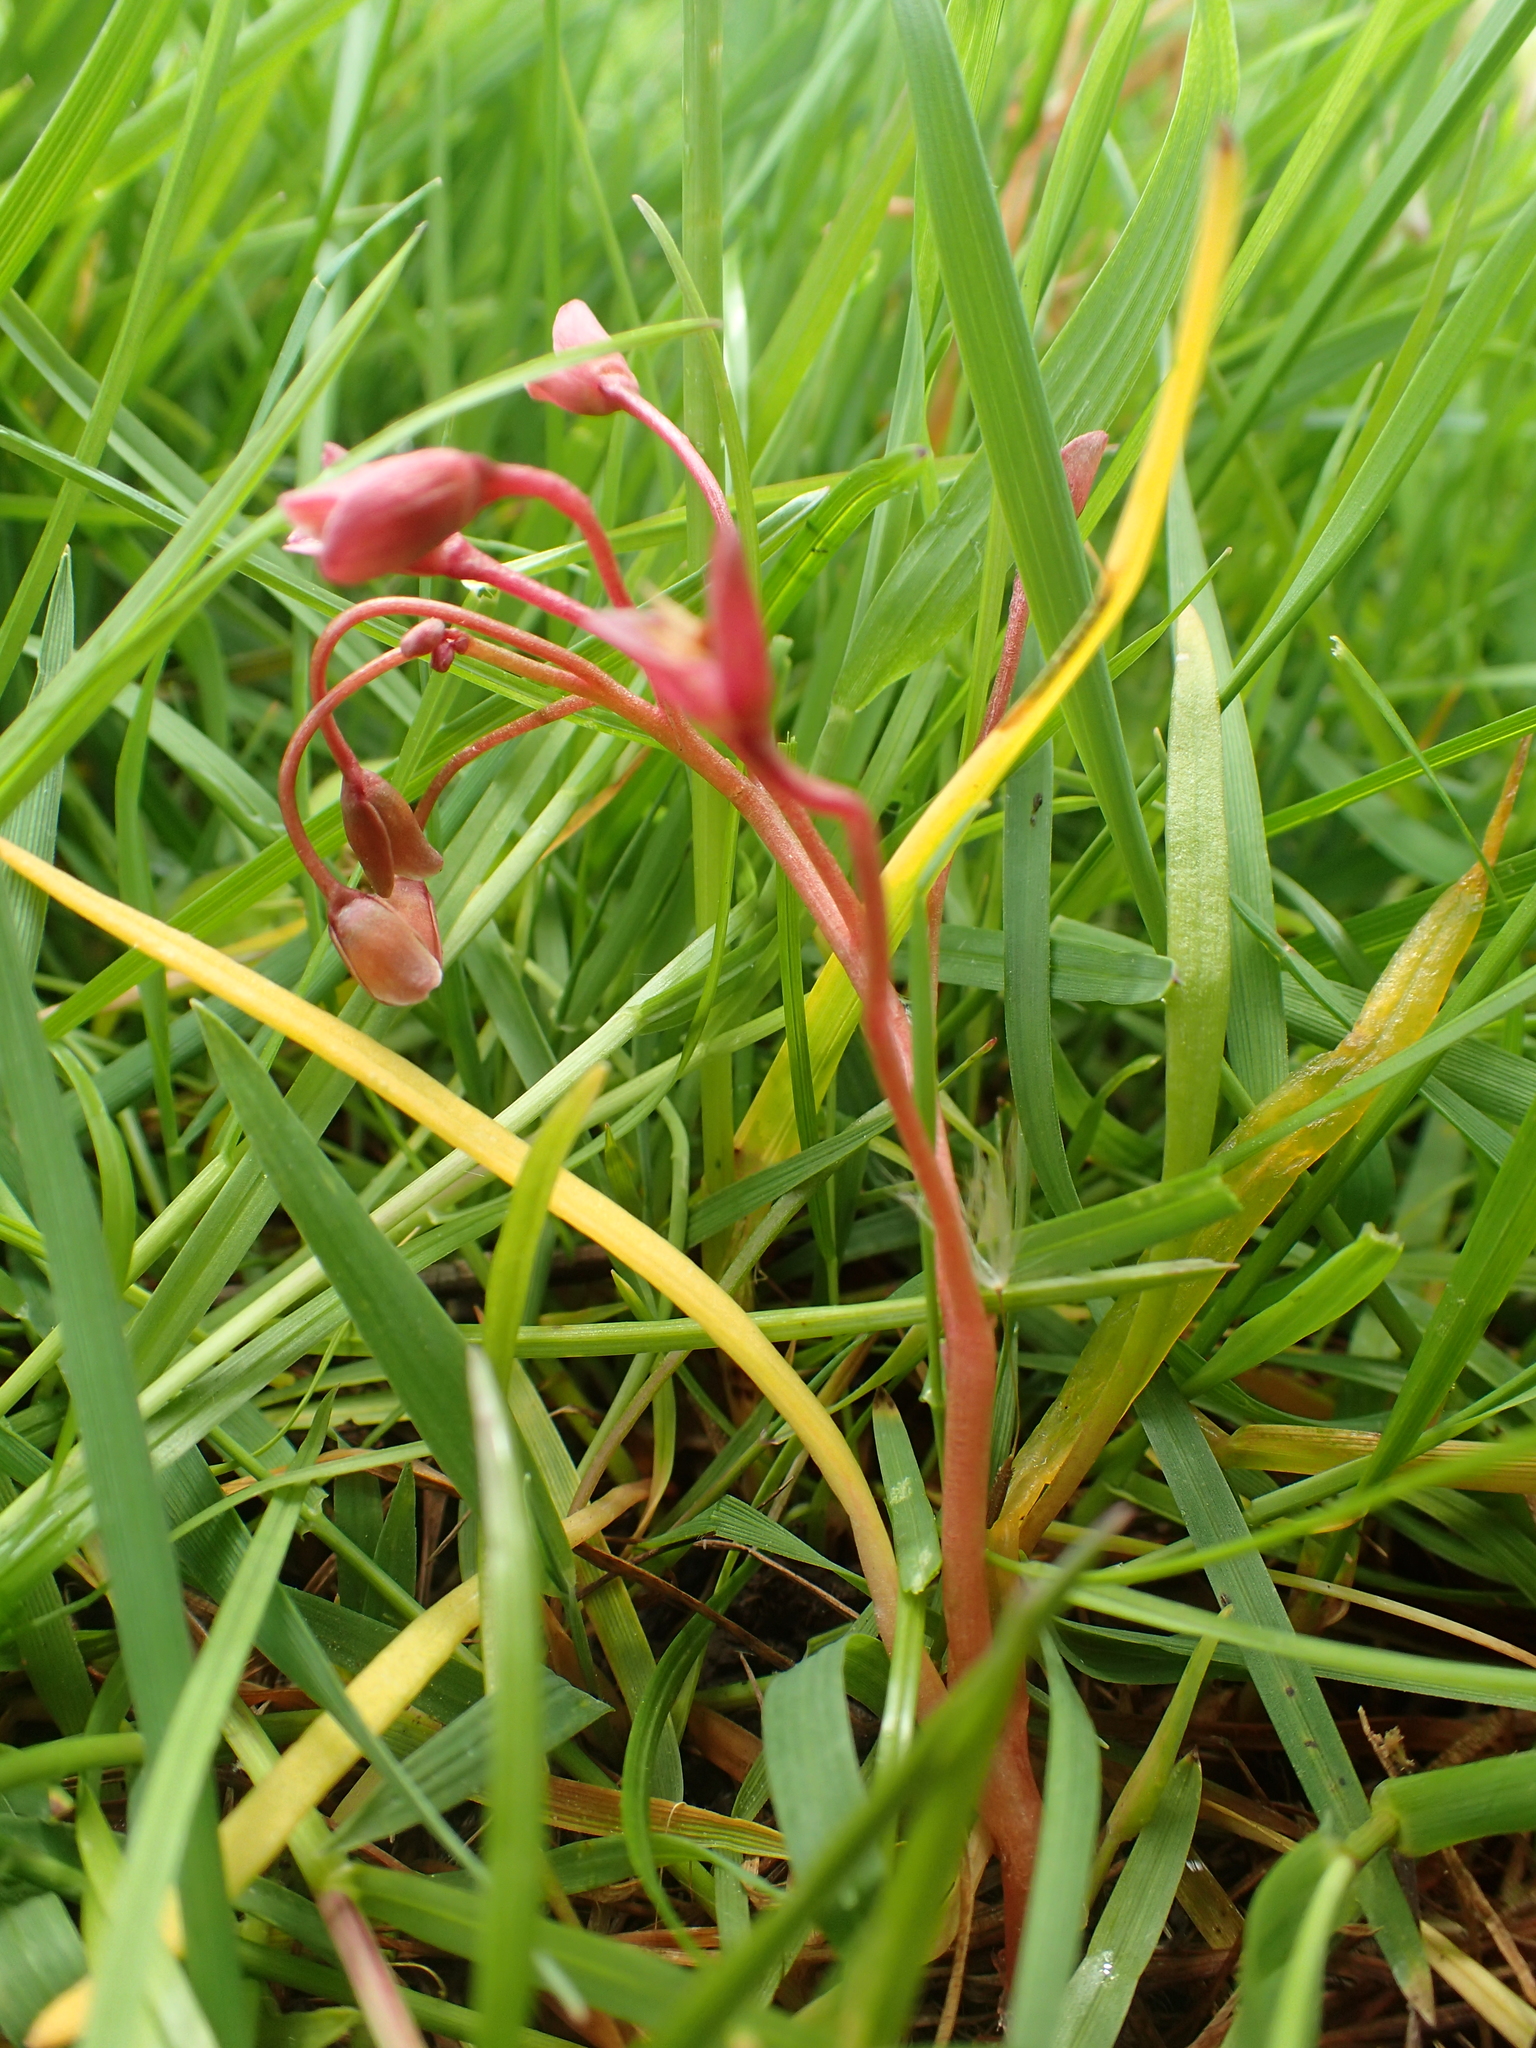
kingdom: Plantae
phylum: Tracheophyta
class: Magnoliopsida
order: Caryophyllales
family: Montiaceae
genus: Claytonia
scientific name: Claytonia virginica
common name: Virginia springbeauty
